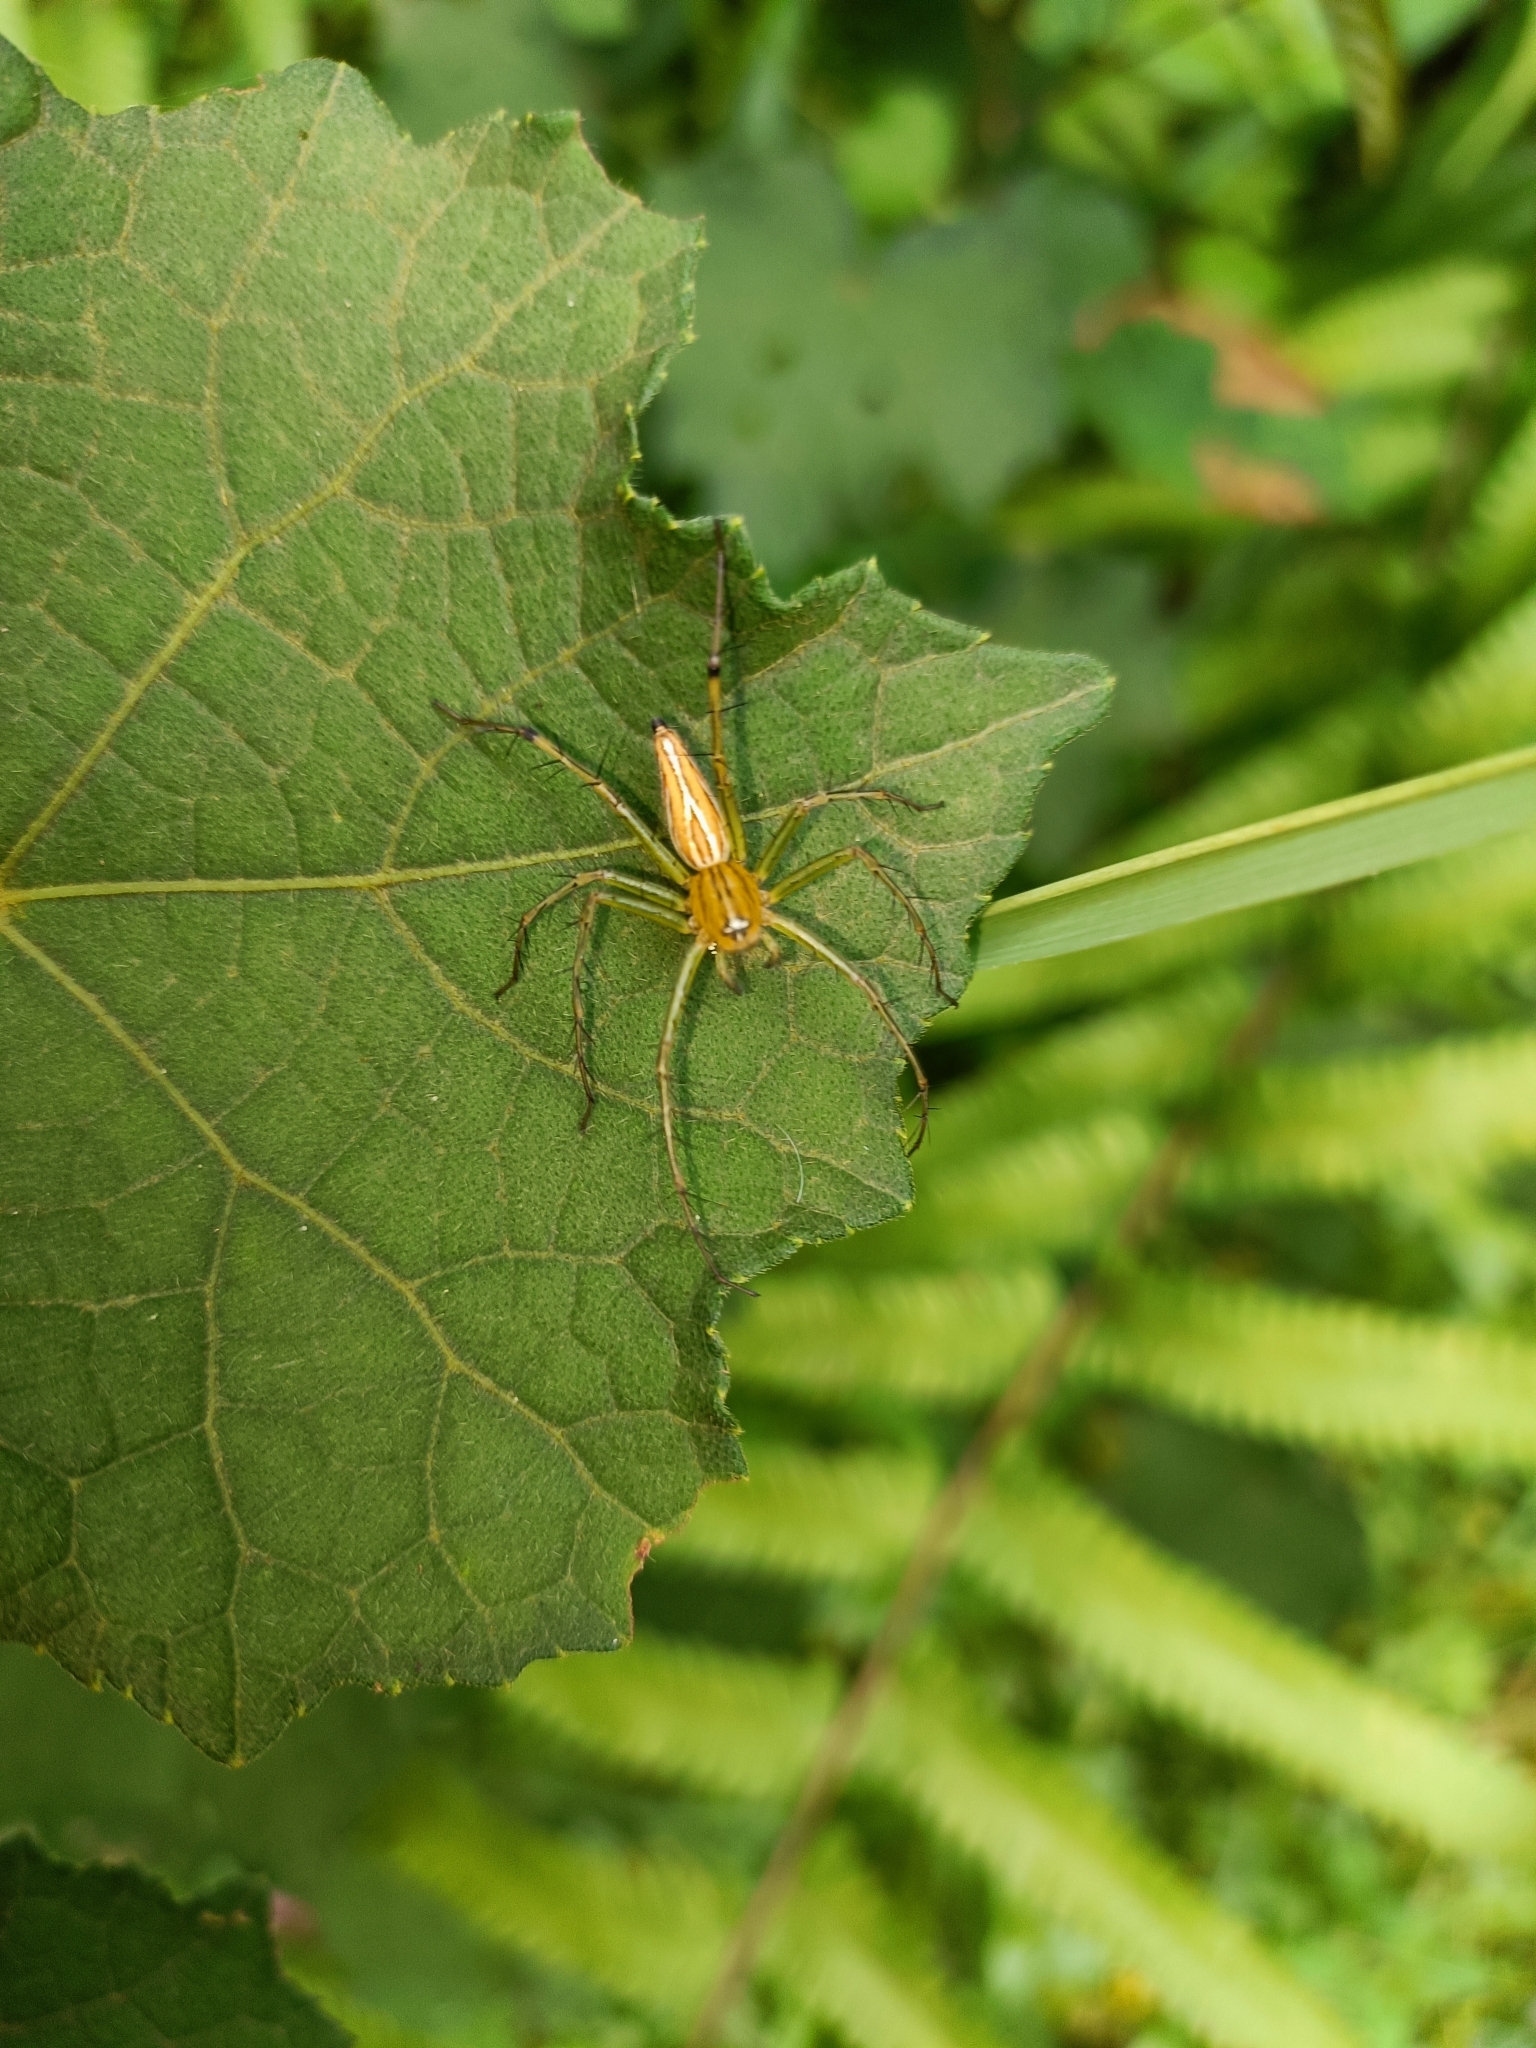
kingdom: Animalia
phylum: Arthropoda
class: Arachnida
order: Araneae
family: Oxyopidae
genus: Oxyopes
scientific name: Oxyopes macilentus
